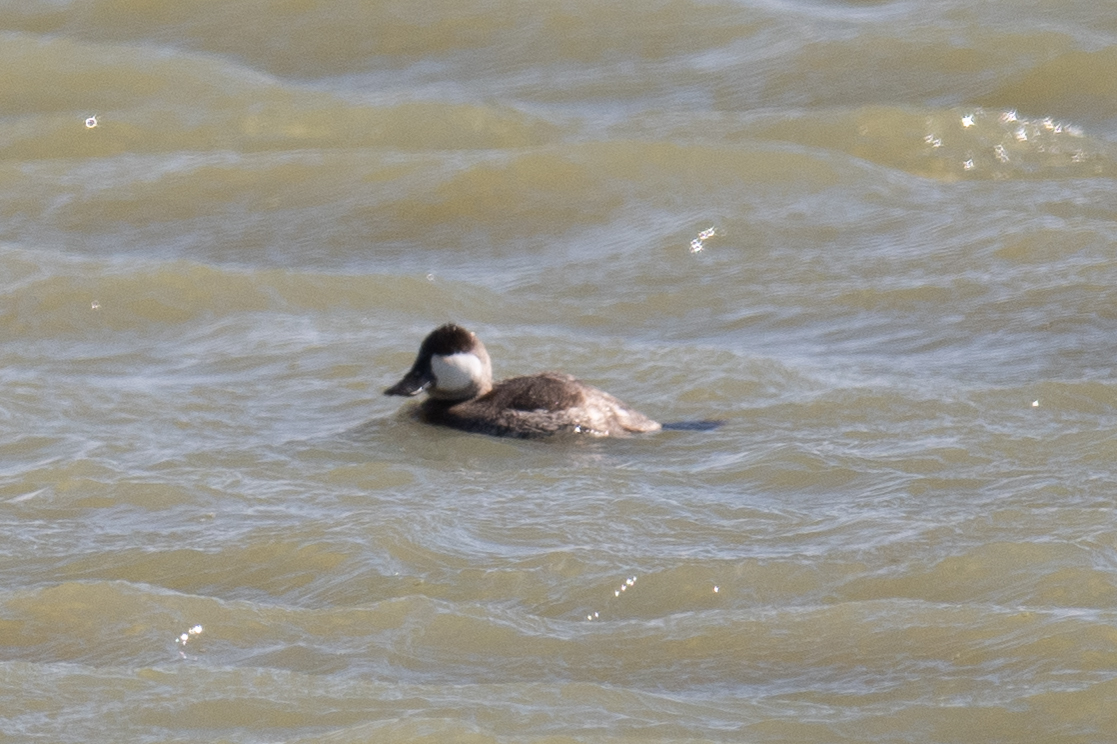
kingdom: Animalia
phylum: Chordata
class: Aves
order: Anseriformes
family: Anatidae
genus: Oxyura
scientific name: Oxyura jamaicensis
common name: Ruddy duck
